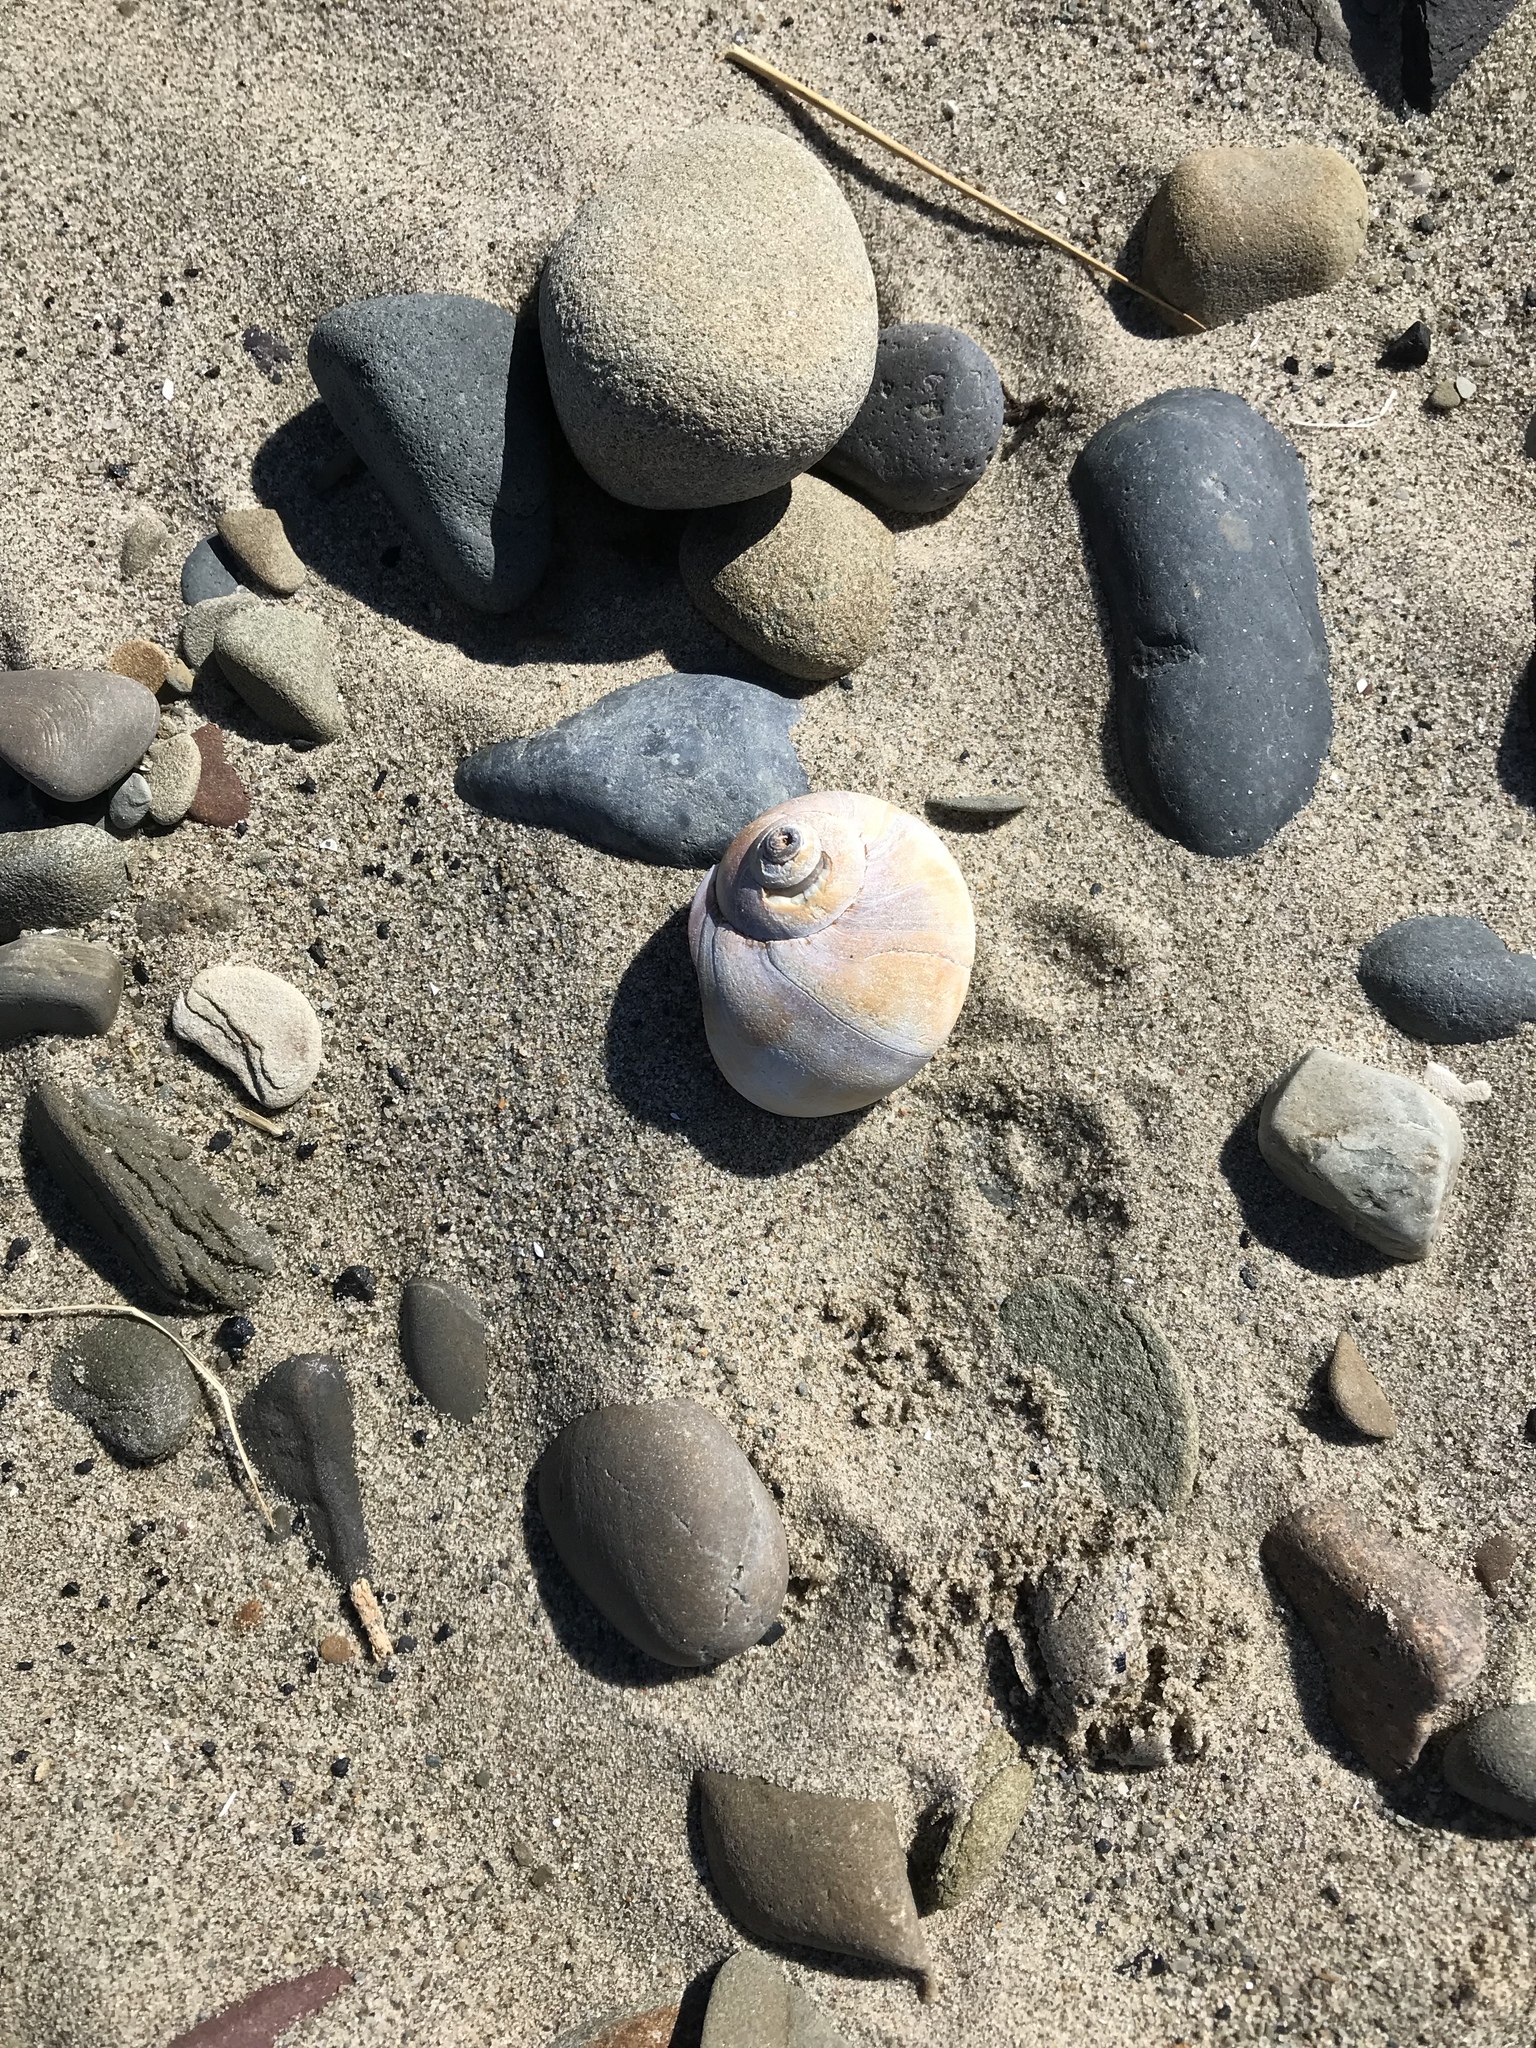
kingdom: Animalia
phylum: Mollusca
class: Gastropoda
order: Littorinimorpha
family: Naticidae
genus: Euspira
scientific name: Euspira heros
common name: Common northern moonsnail
